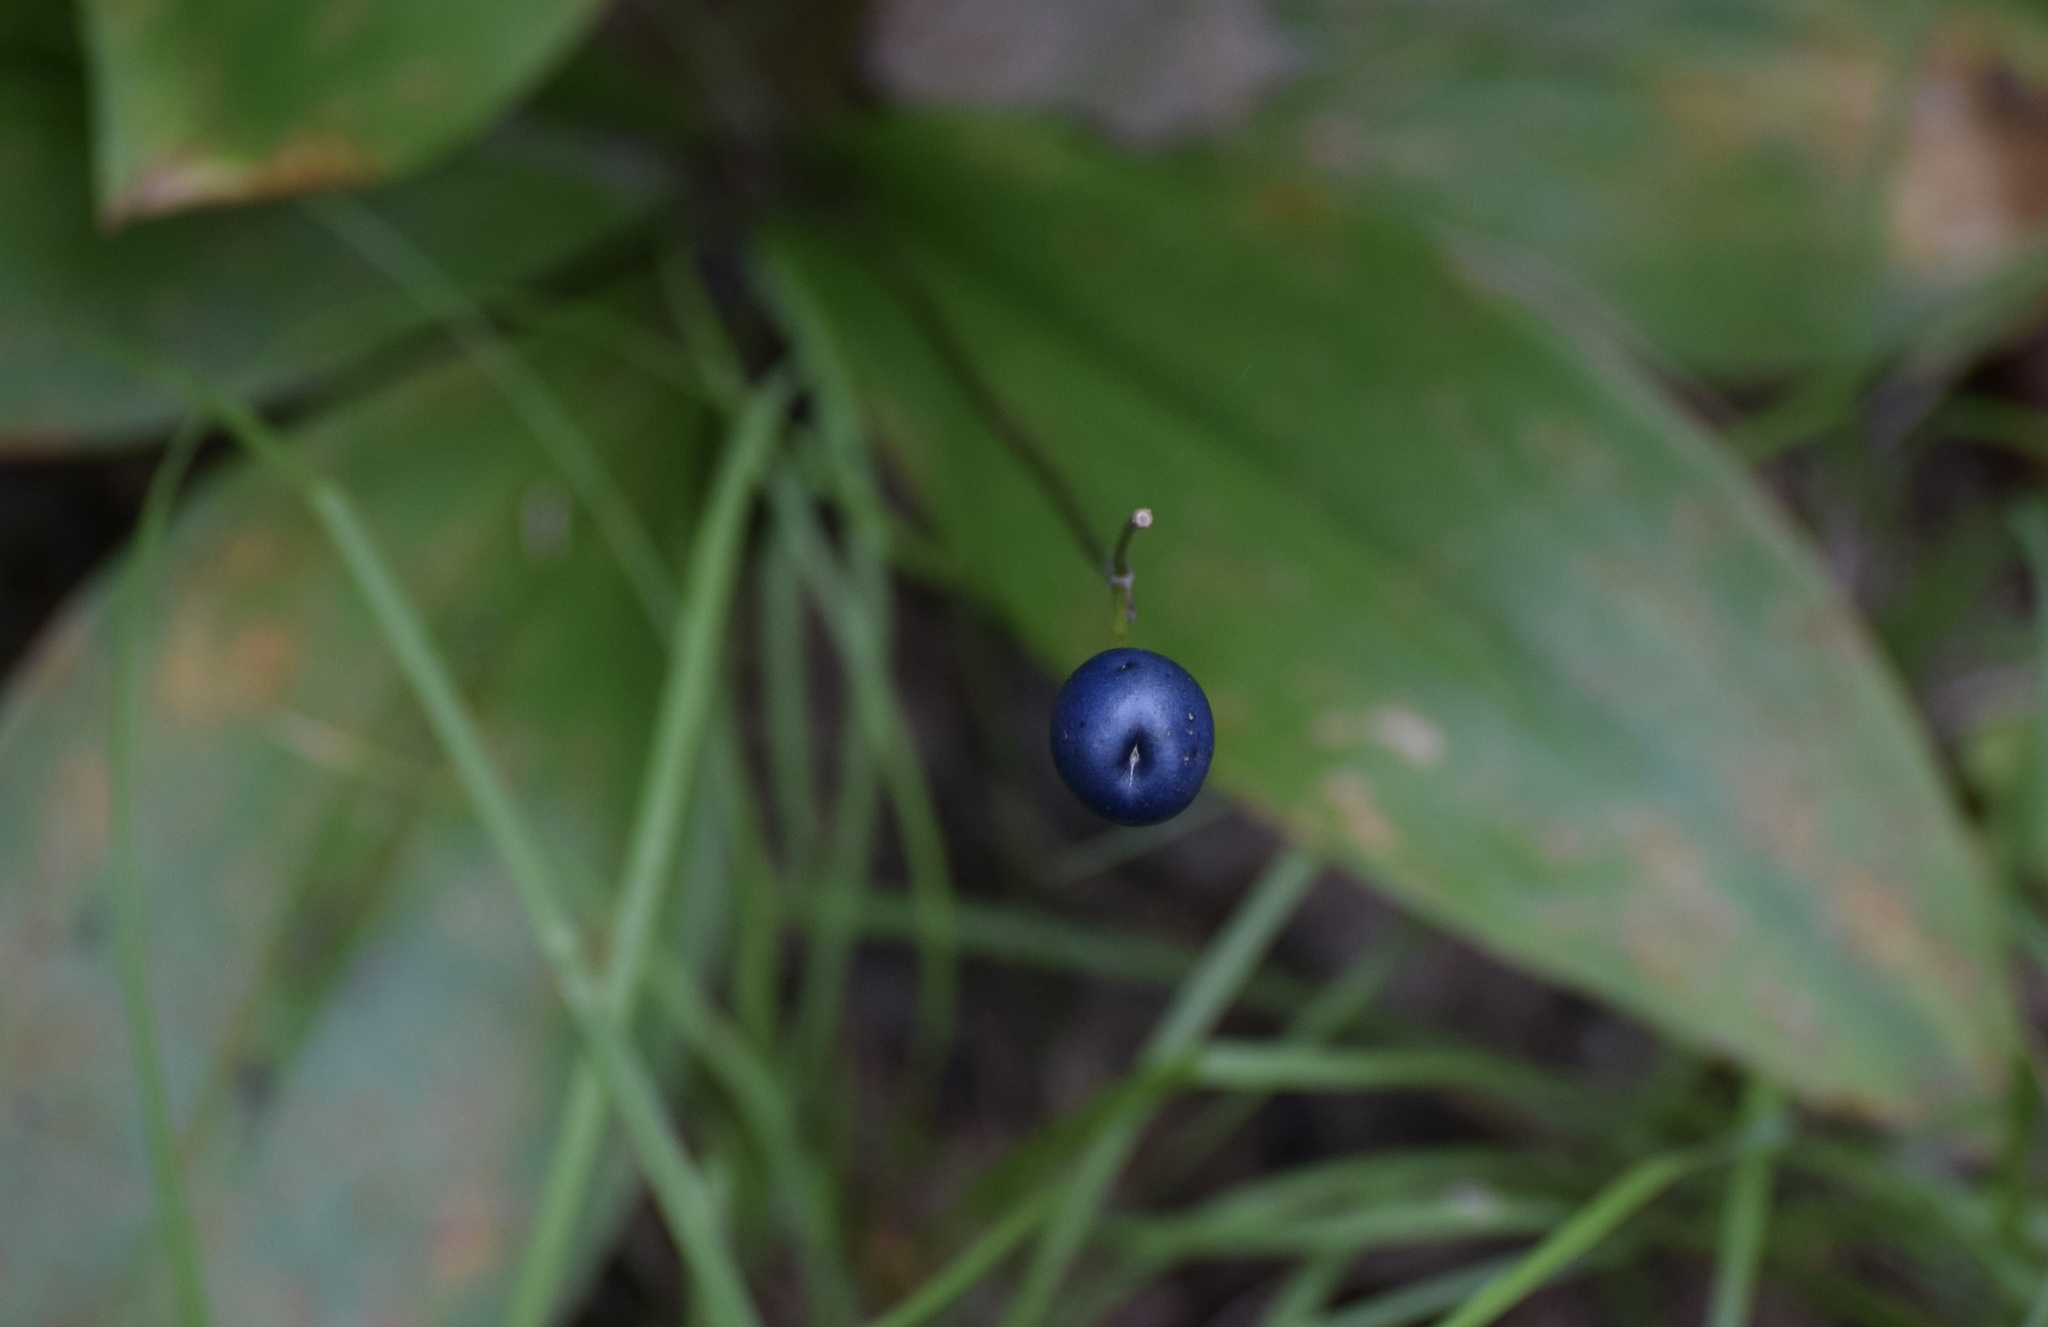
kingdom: Plantae
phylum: Tracheophyta
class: Liliopsida
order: Liliales
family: Liliaceae
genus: Clintonia
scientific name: Clintonia borealis
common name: Yellow clintonia
